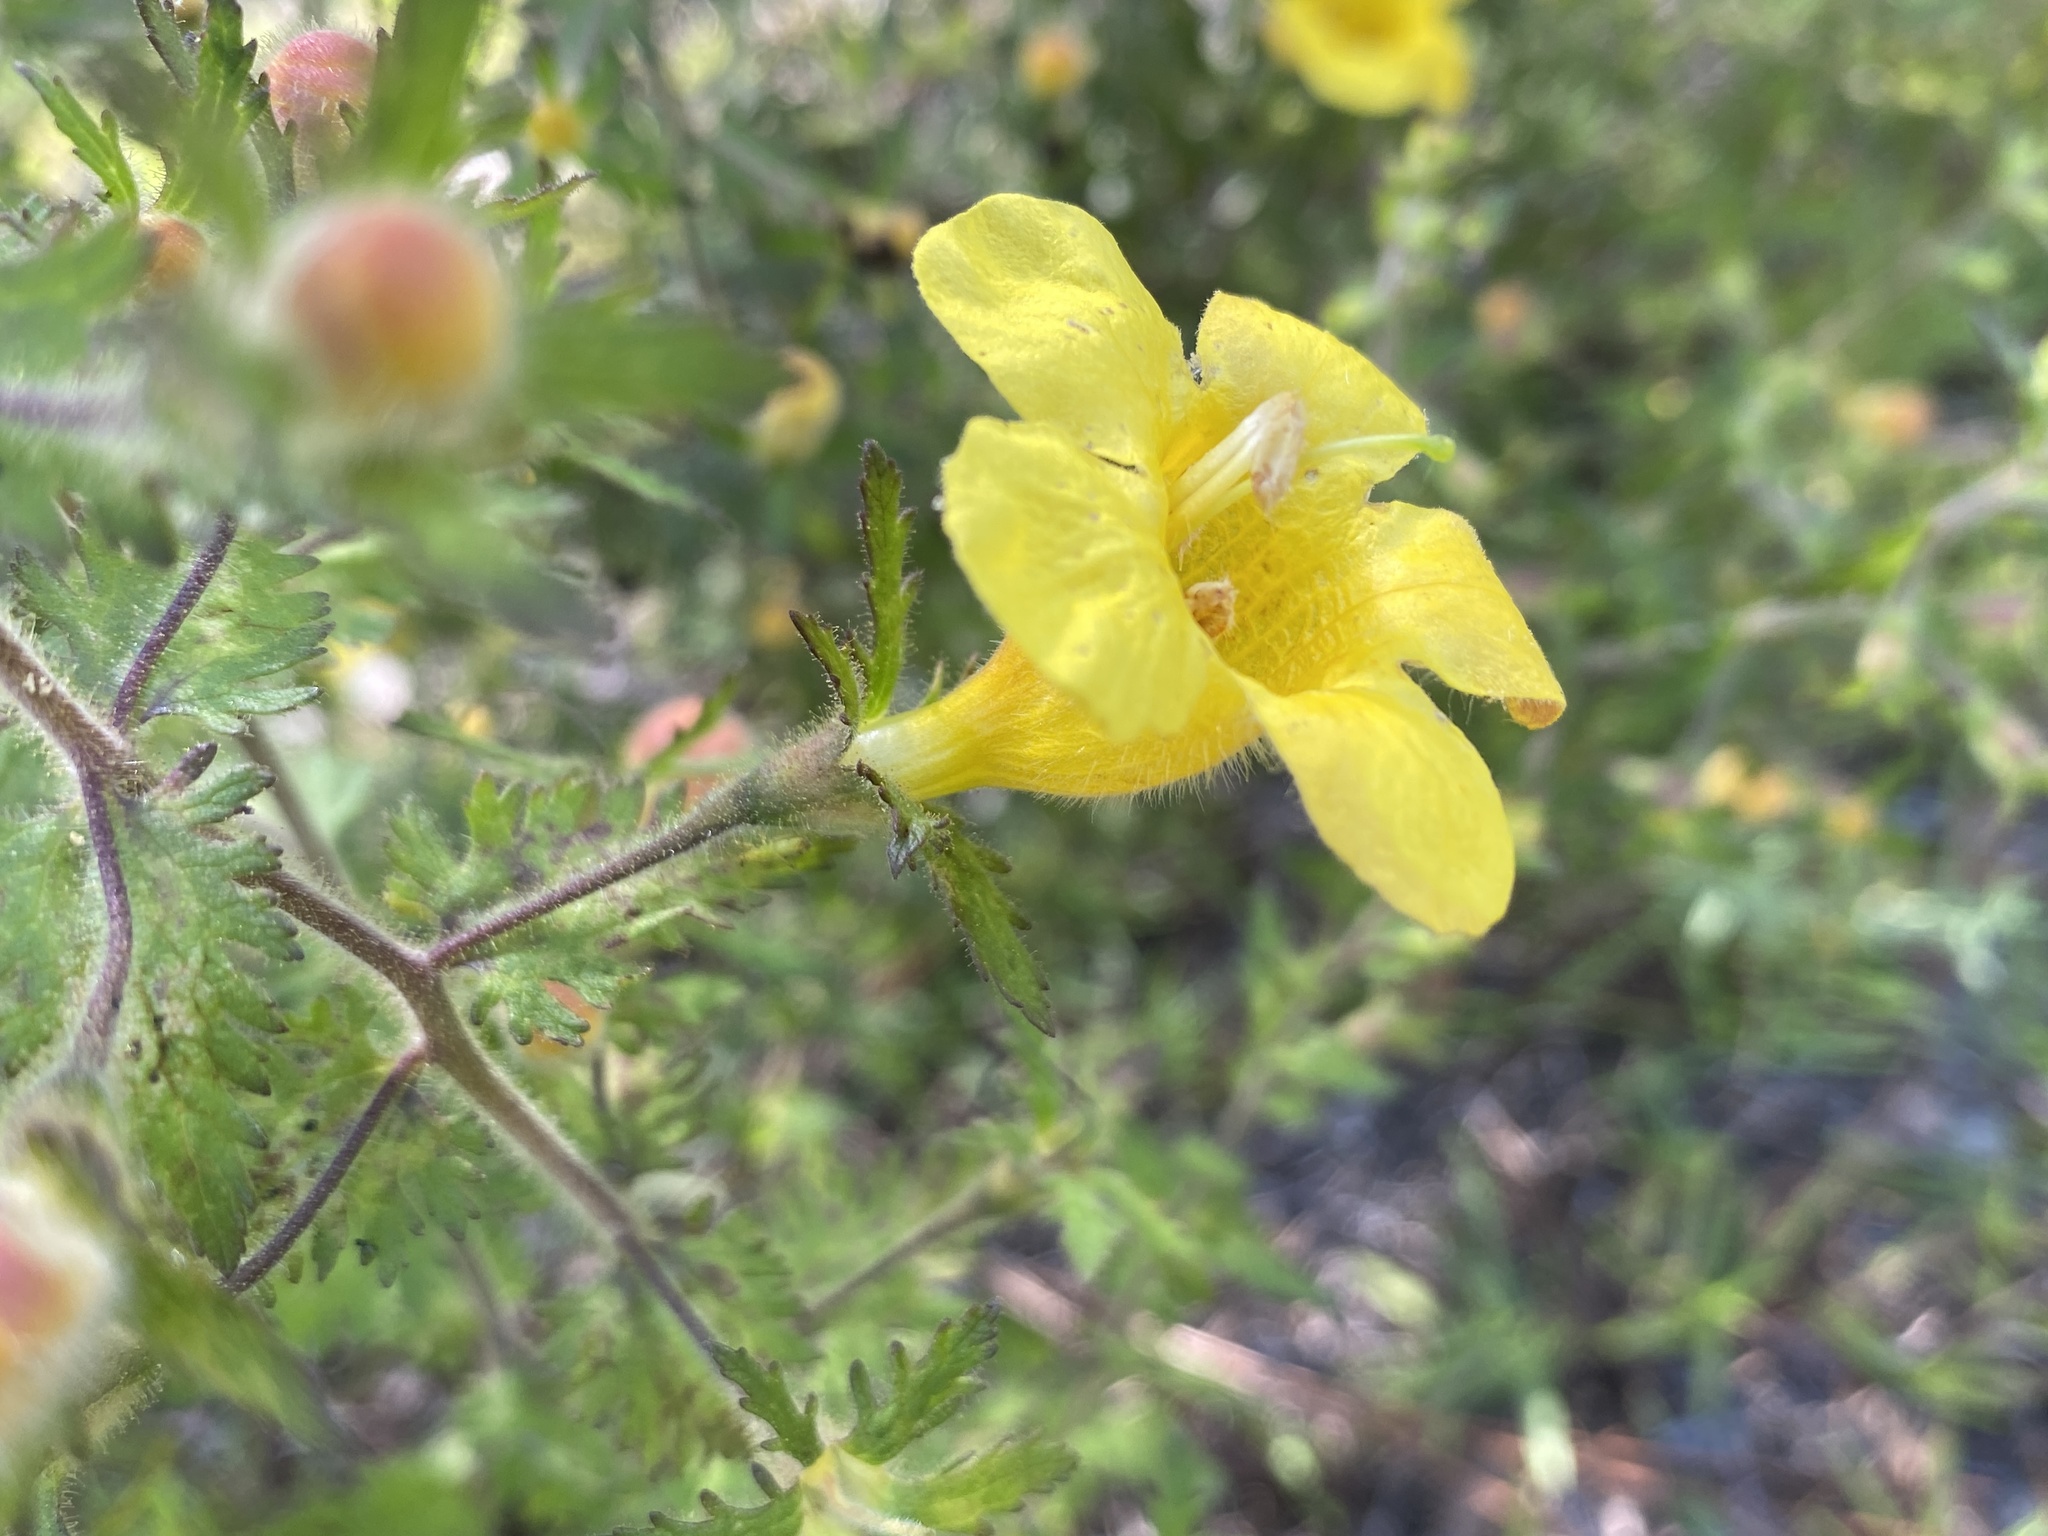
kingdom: Plantae
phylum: Tracheophyta
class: Magnoliopsida
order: Lamiales
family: Orobanchaceae
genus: Aureolaria
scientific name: Aureolaria pectinata
